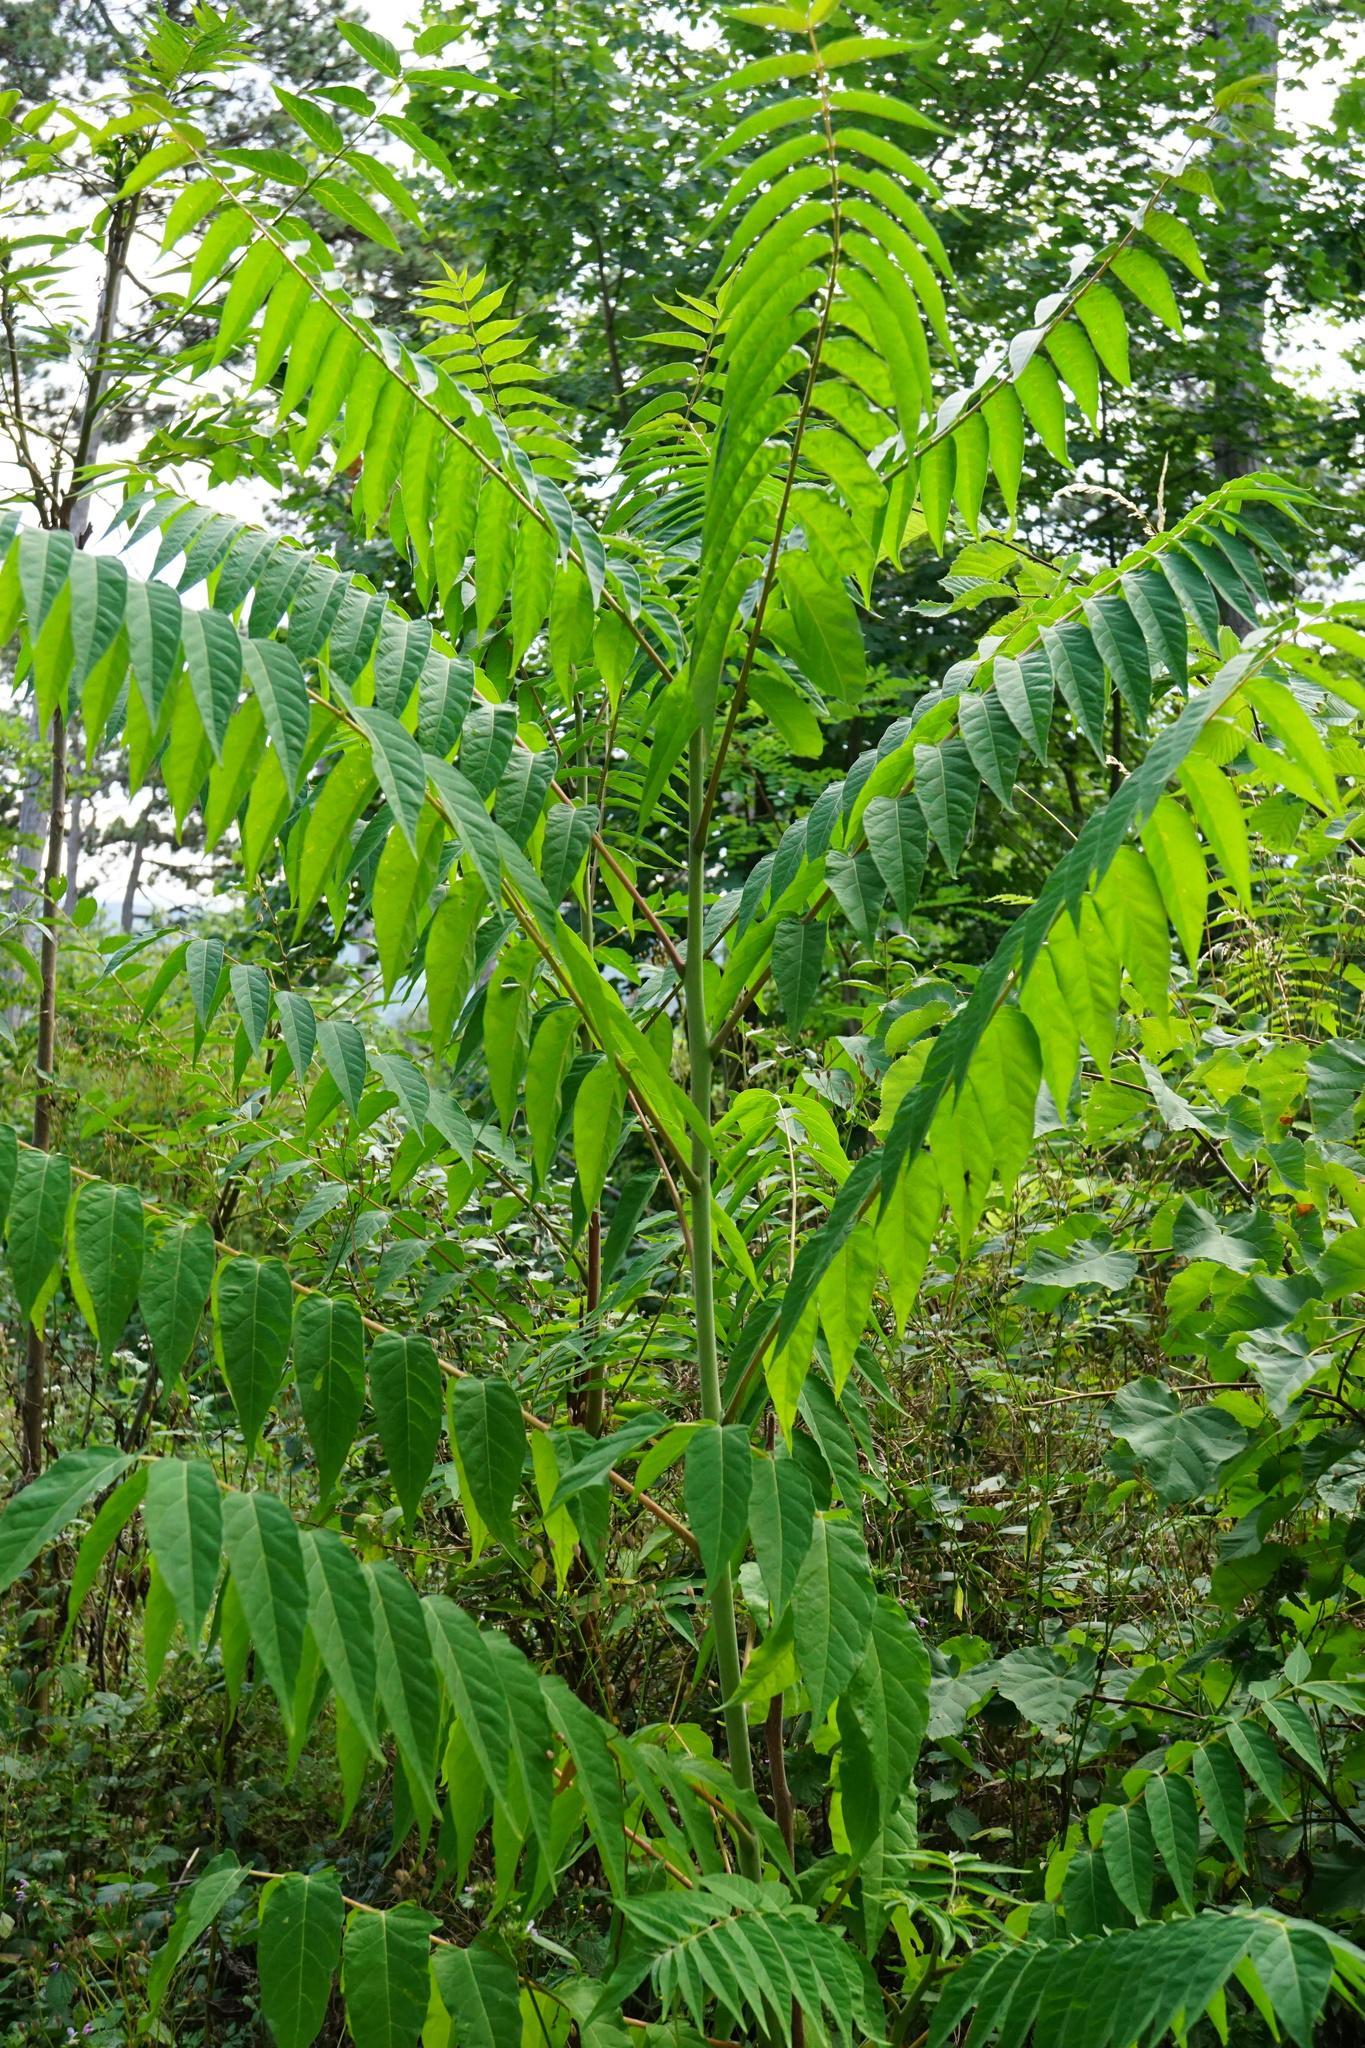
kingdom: Plantae
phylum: Tracheophyta
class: Magnoliopsida
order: Sapindales
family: Simaroubaceae
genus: Ailanthus
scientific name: Ailanthus altissima
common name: Tree-of-heaven
